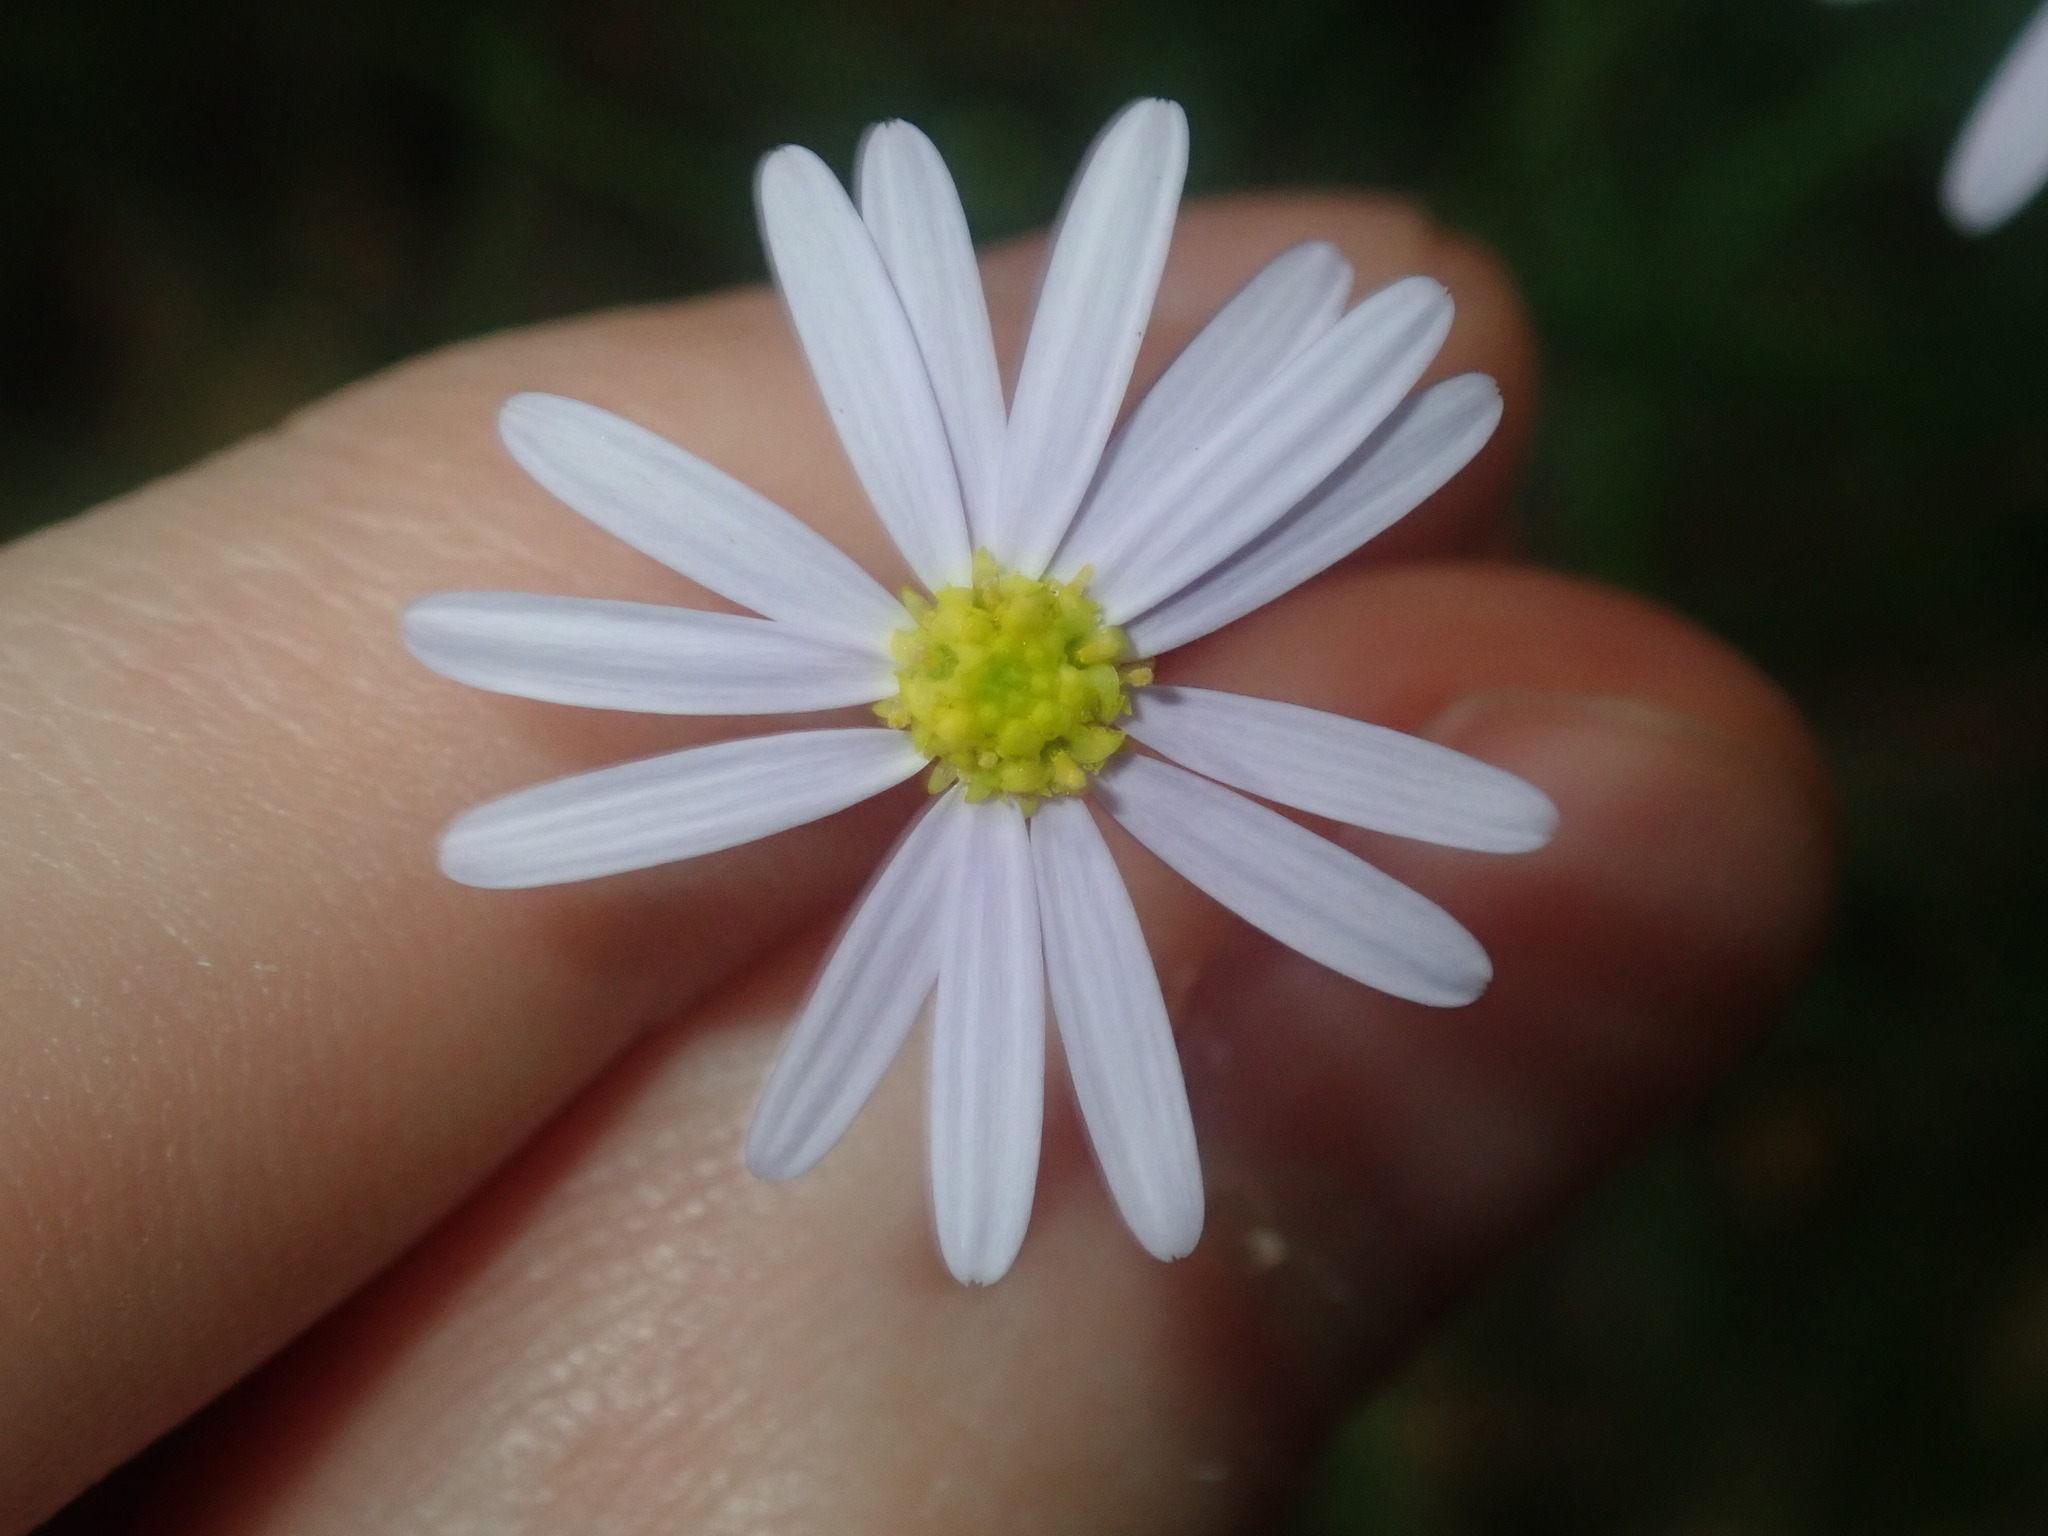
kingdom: Plantae
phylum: Tracheophyta
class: Magnoliopsida
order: Asterales
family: Asteraceae
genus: Vittadinia
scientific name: Vittadinia triloba
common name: Fuzzweed
